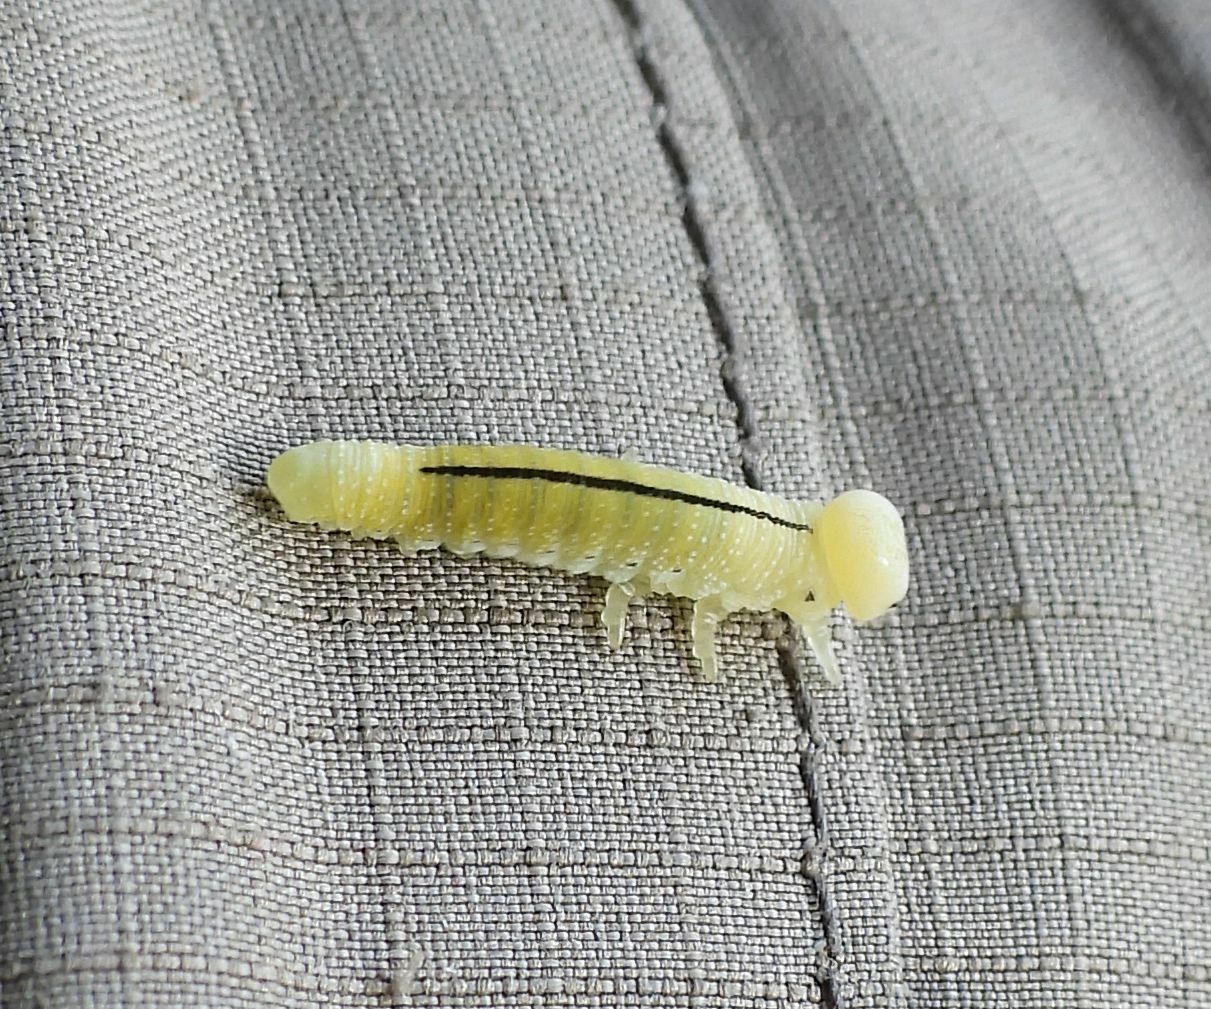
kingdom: Animalia
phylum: Arthropoda
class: Insecta
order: Hymenoptera
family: Cimbicidae
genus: Cimbex
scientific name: Cimbex americana
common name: Elm sawfly
